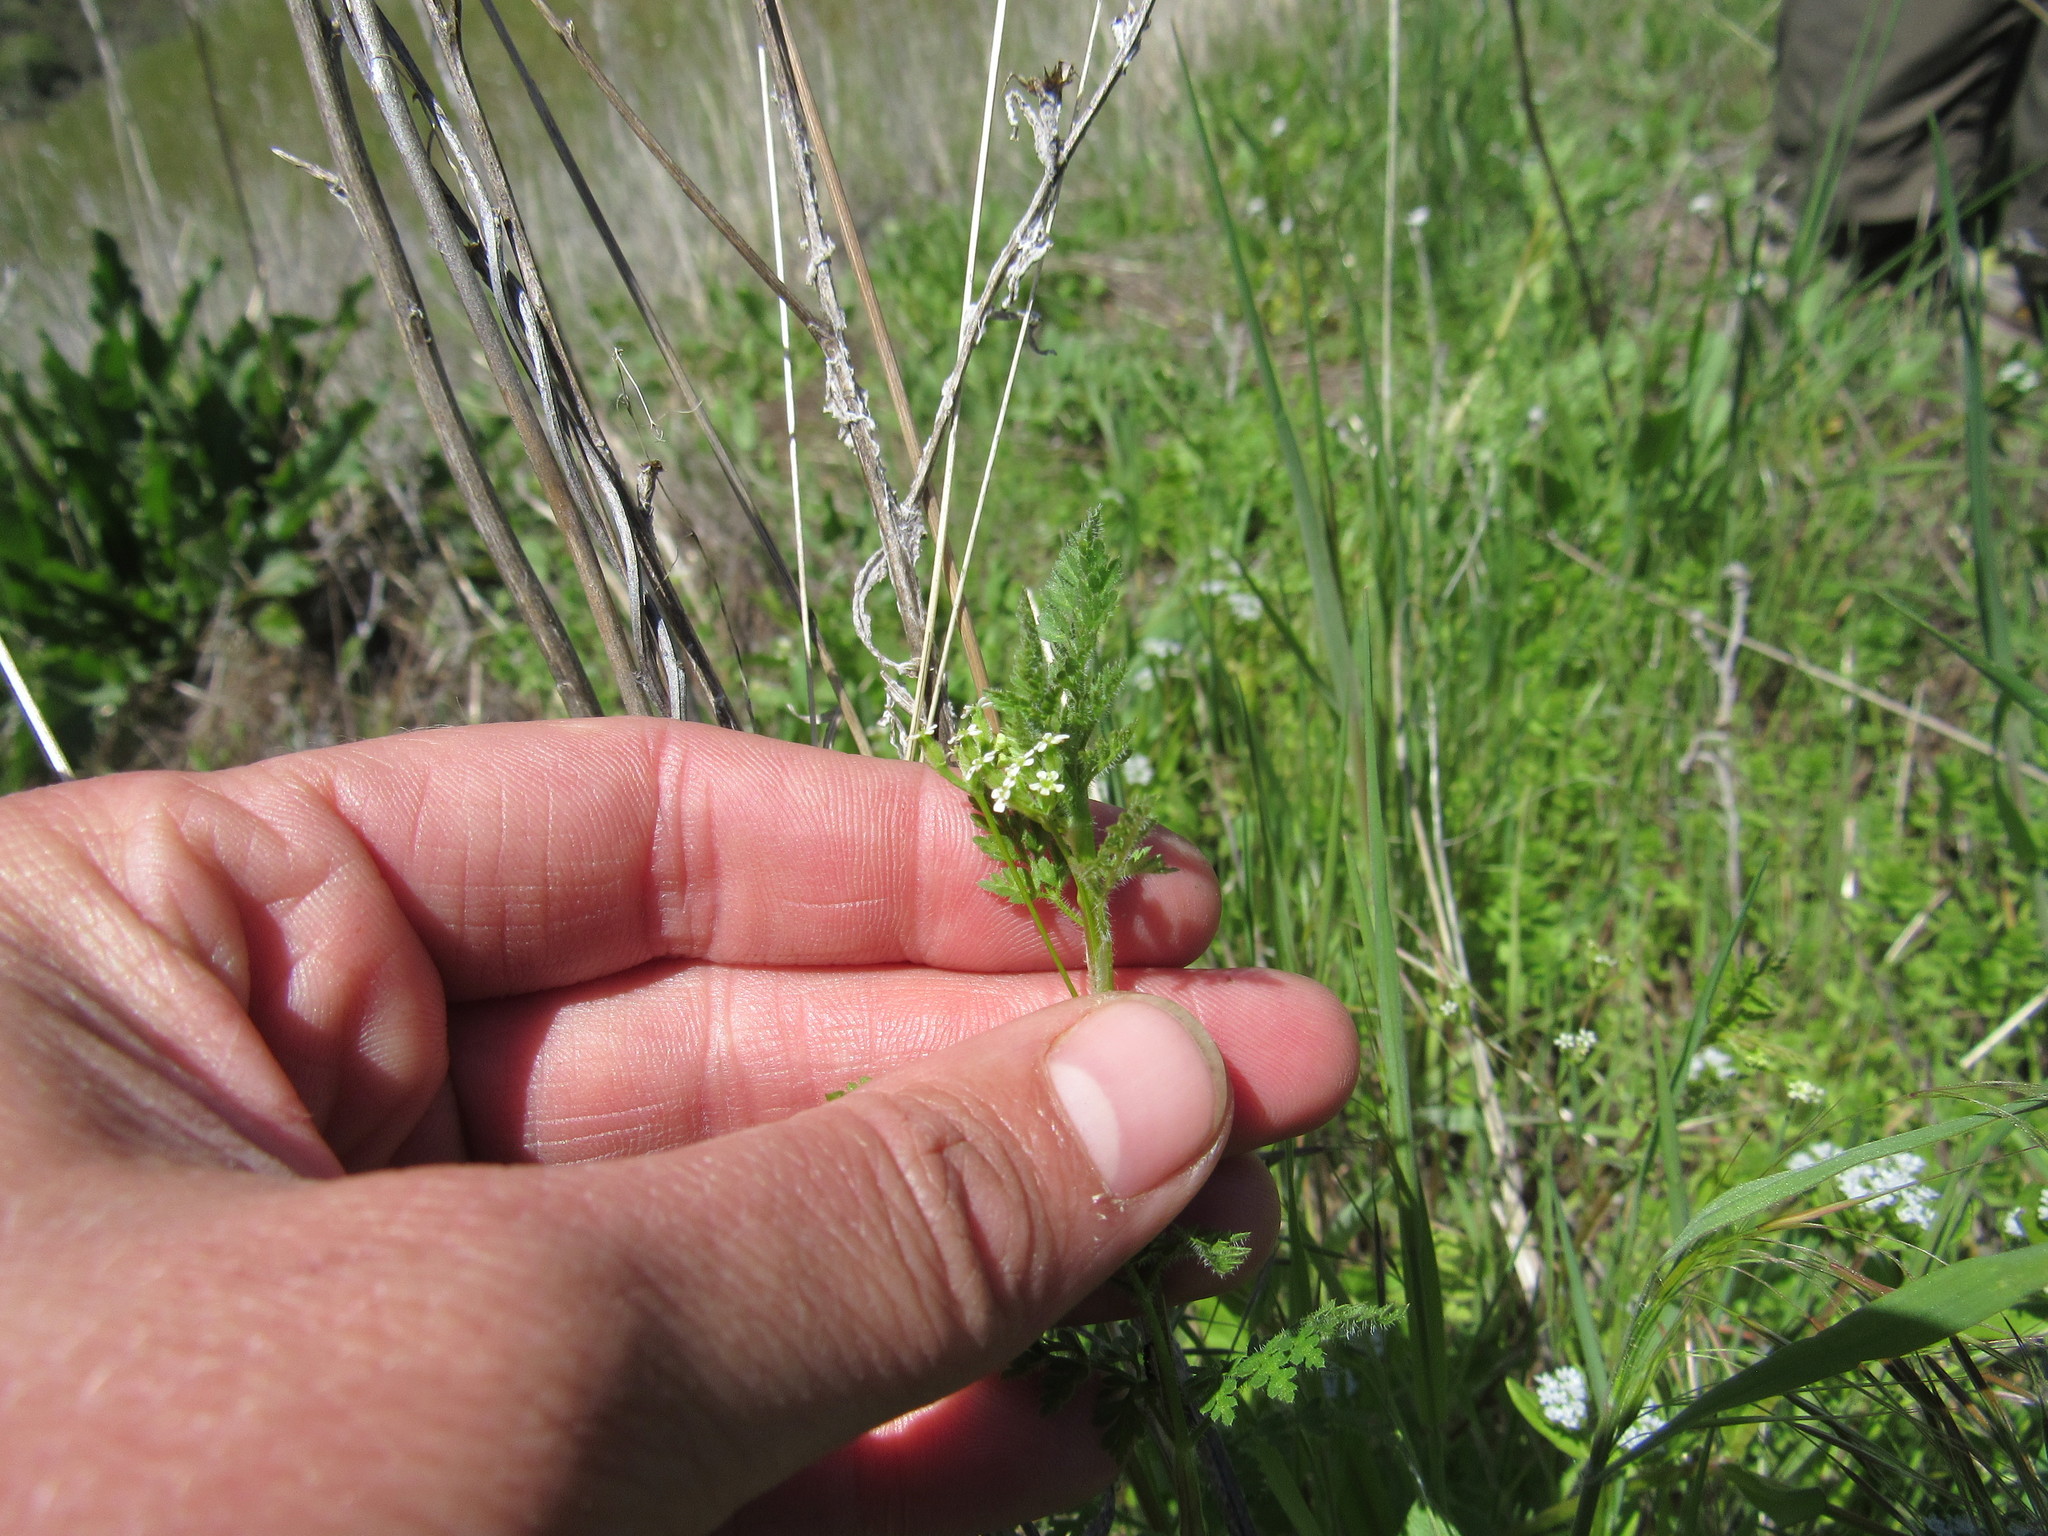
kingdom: Plantae
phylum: Tracheophyta
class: Magnoliopsida
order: Apiales
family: Apiaceae
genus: Anthriscus
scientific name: Anthriscus caucalis
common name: Bur chervil
